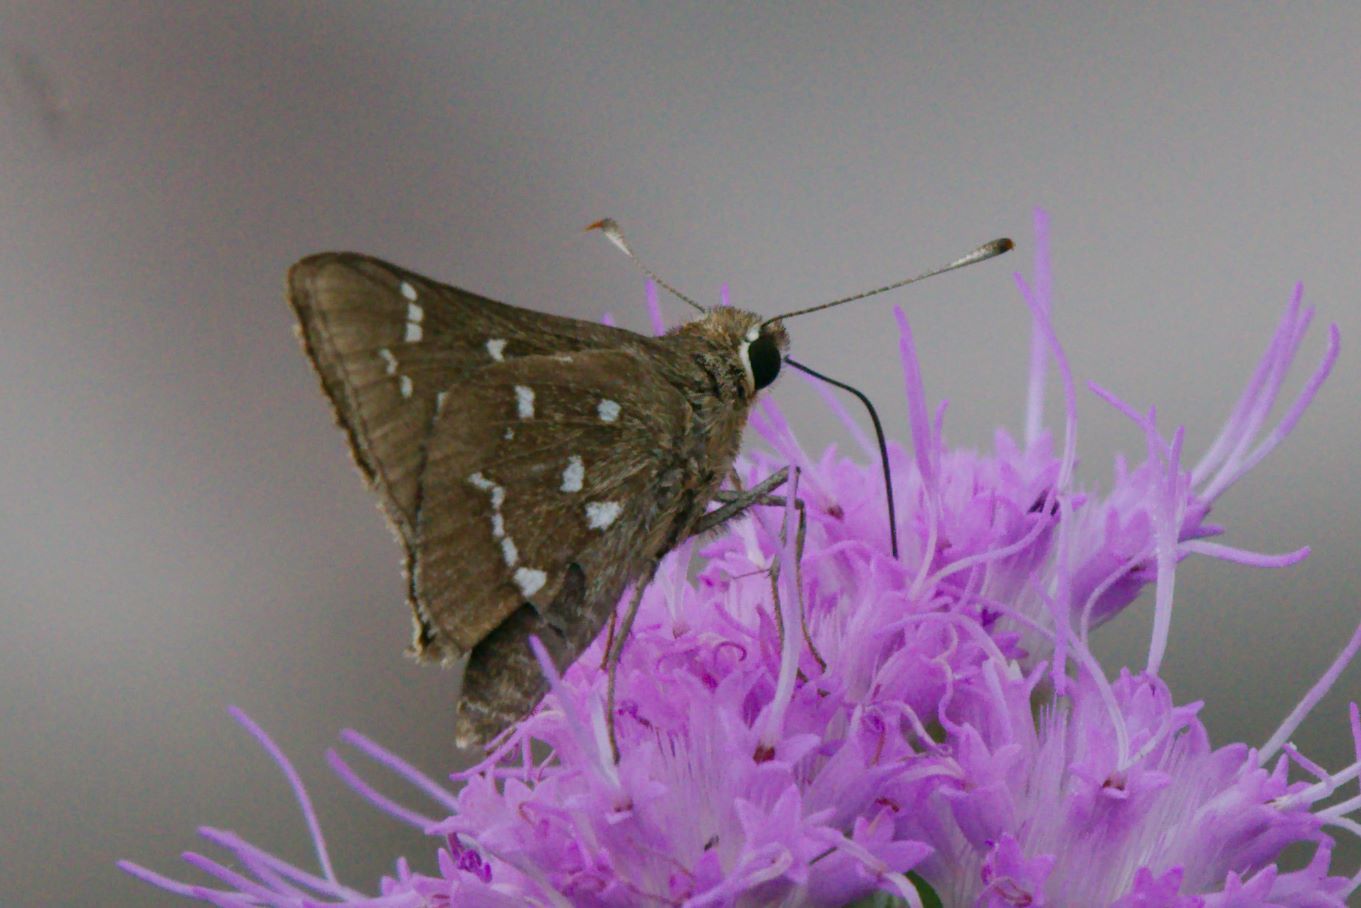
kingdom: Animalia
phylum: Arthropoda
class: Insecta
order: Lepidoptera
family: Hesperiidae
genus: Atrytonopsis
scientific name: Atrytonopsis loammi
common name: Loammi skipper
